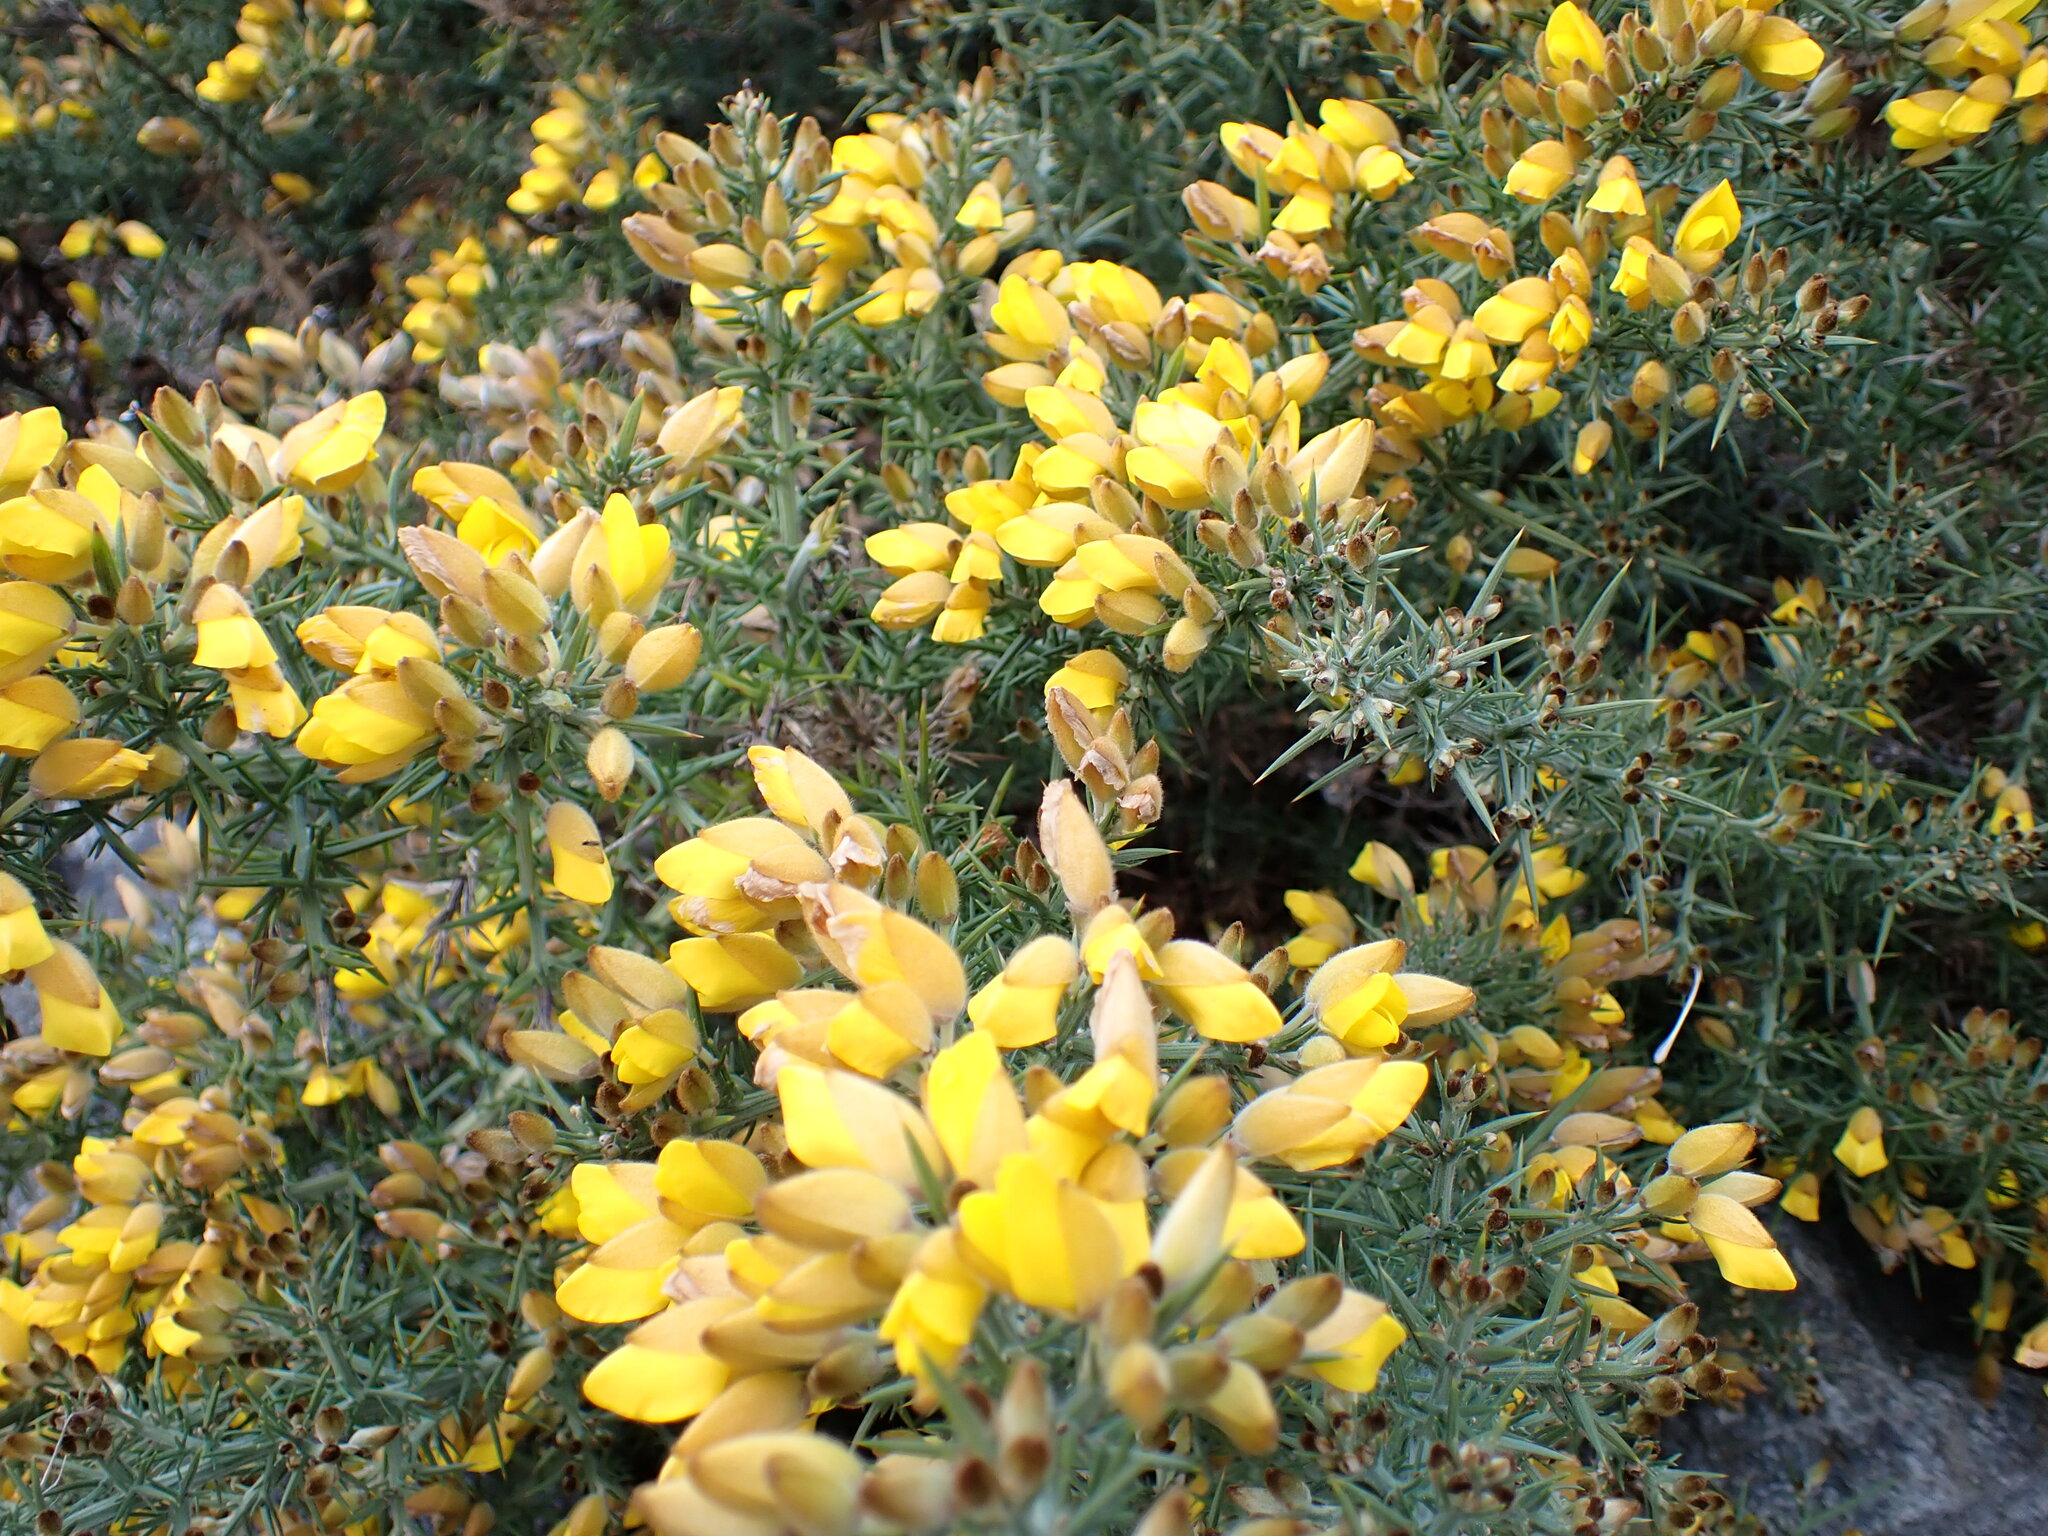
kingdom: Plantae
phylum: Tracheophyta
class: Magnoliopsida
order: Fabales
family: Fabaceae
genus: Ulex
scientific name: Ulex europaeus
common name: Common gorse
